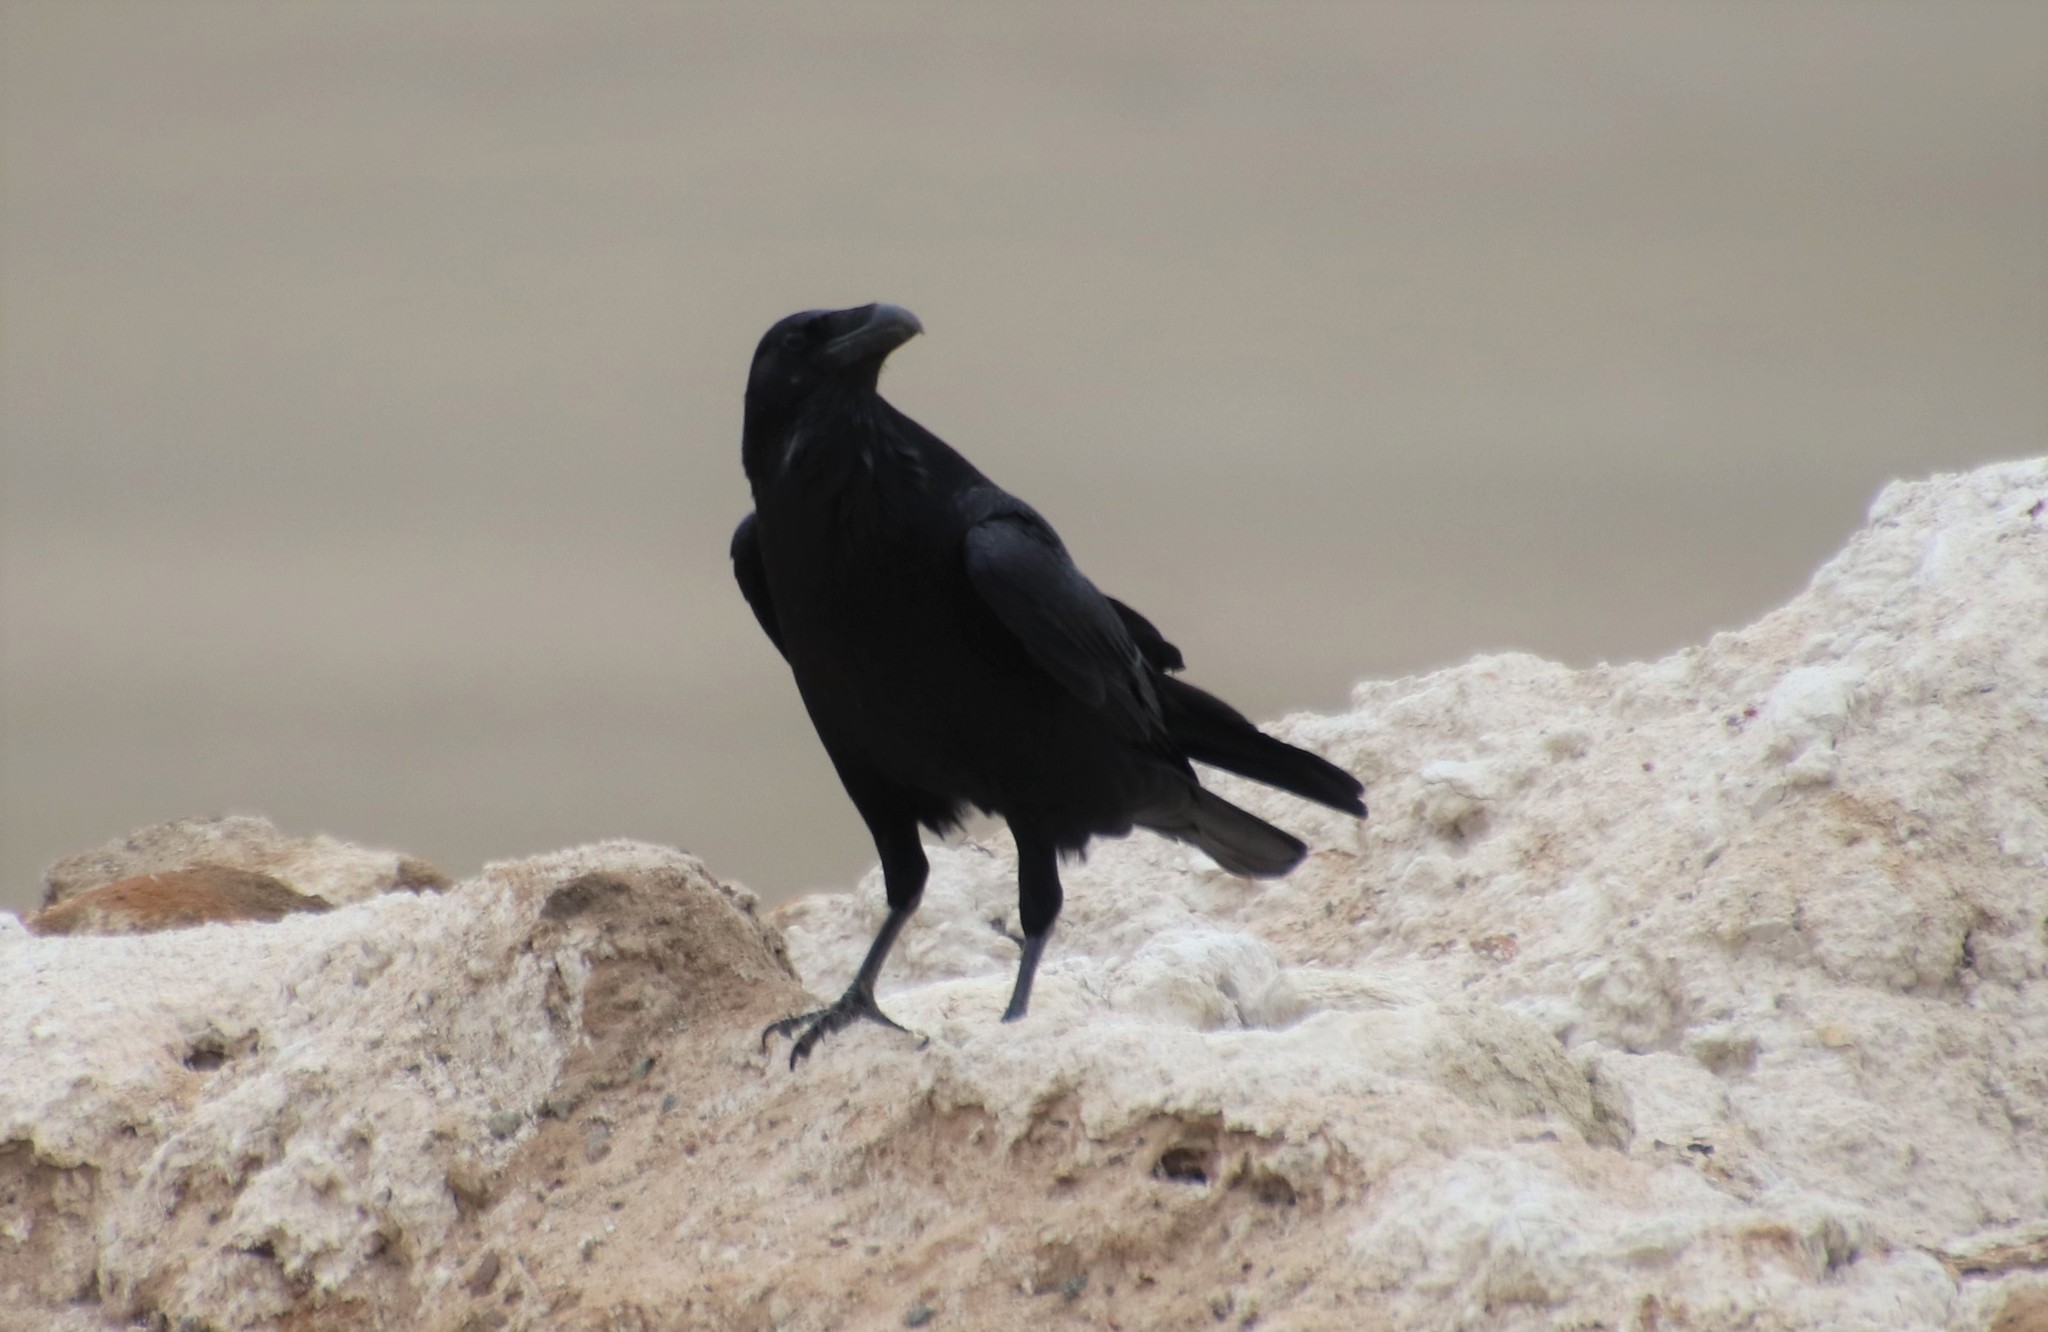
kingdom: Animalia
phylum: Chordata
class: Aves
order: Passeriformes
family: Corvidae
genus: Corvus
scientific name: Corvus corax
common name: Common raven
